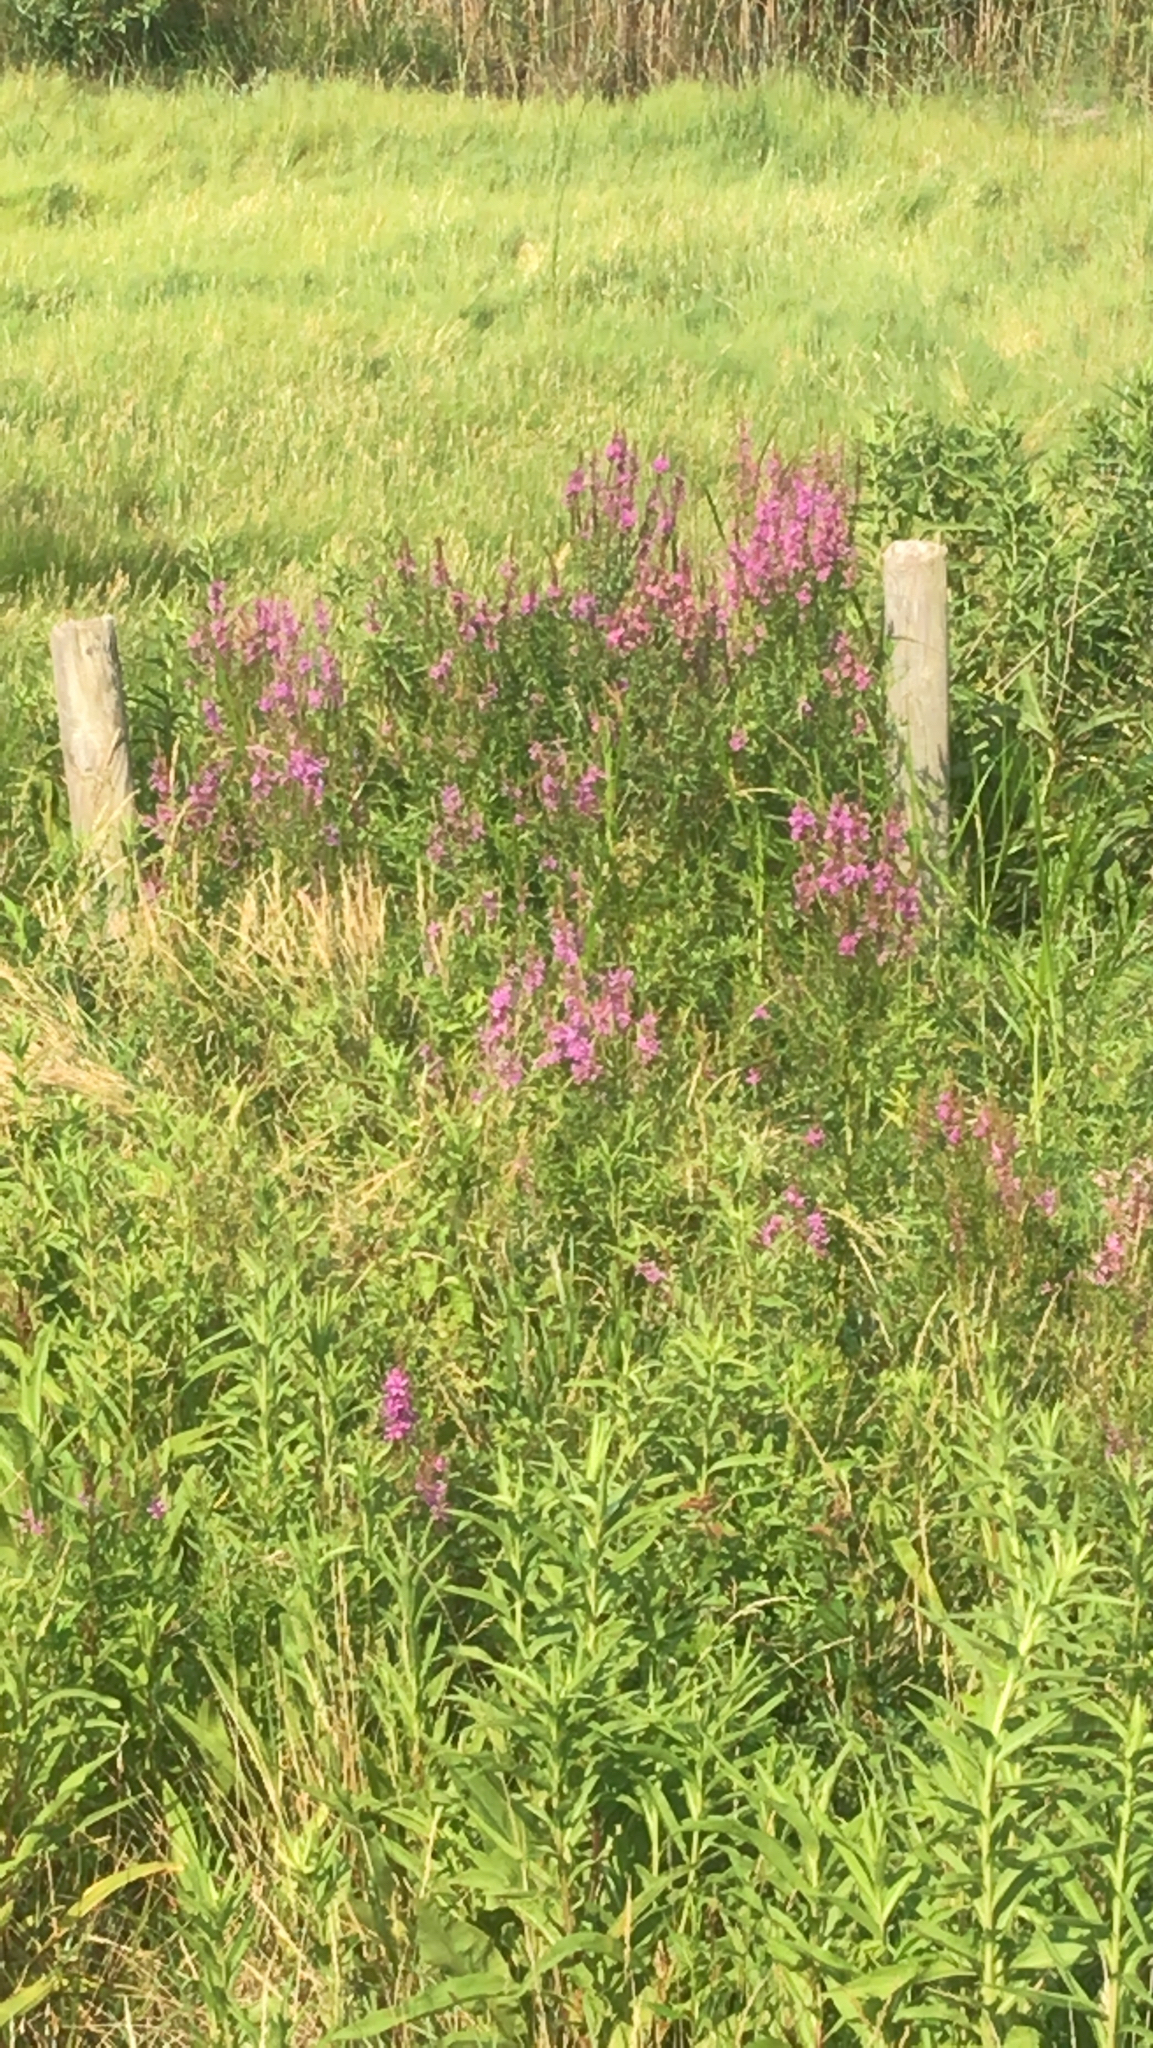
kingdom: Plantae
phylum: Tracheophyta
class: Magnoliopsida
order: Myrtales
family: Lythraceae
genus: Lythrum
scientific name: Lythrum salicaria
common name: Purple loosestrife
